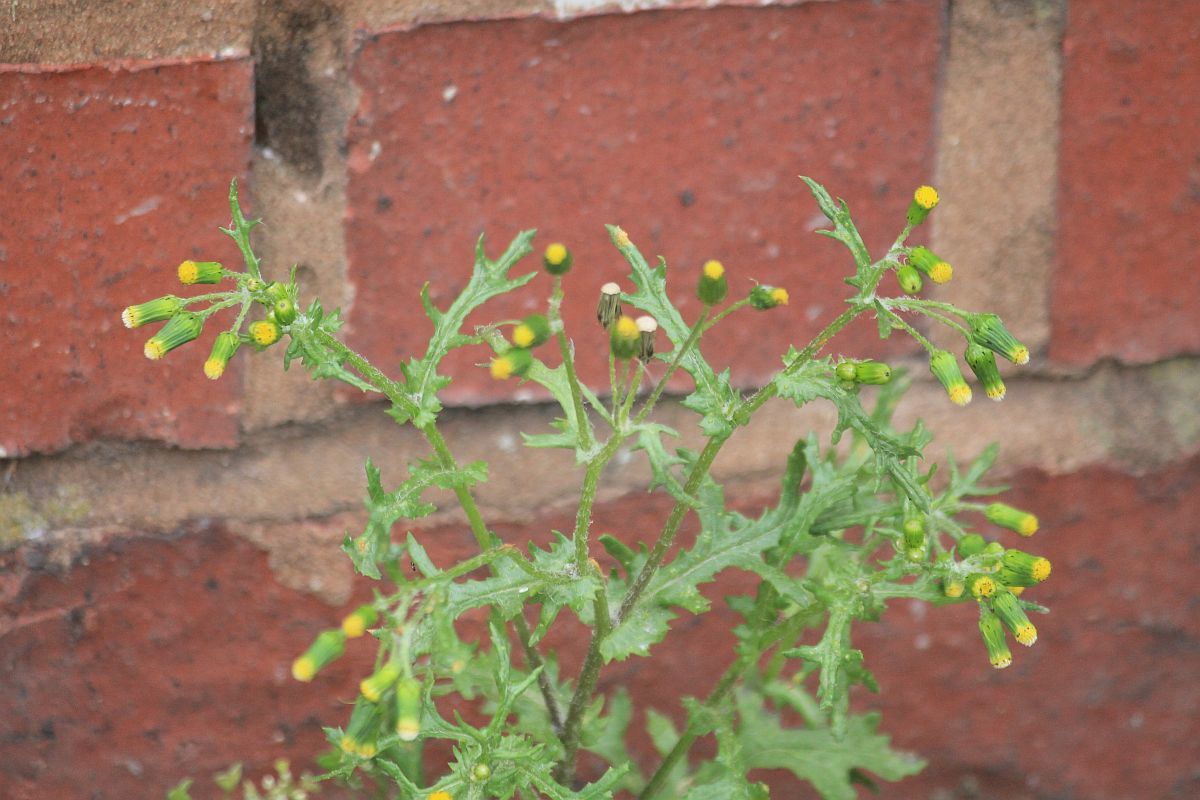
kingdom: Plantae
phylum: Tracheophyta
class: Magnoliopsida
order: Asterales
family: Asteraceae
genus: Senecio
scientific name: Senecio vulgaris
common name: Old-man-in-the-spring
